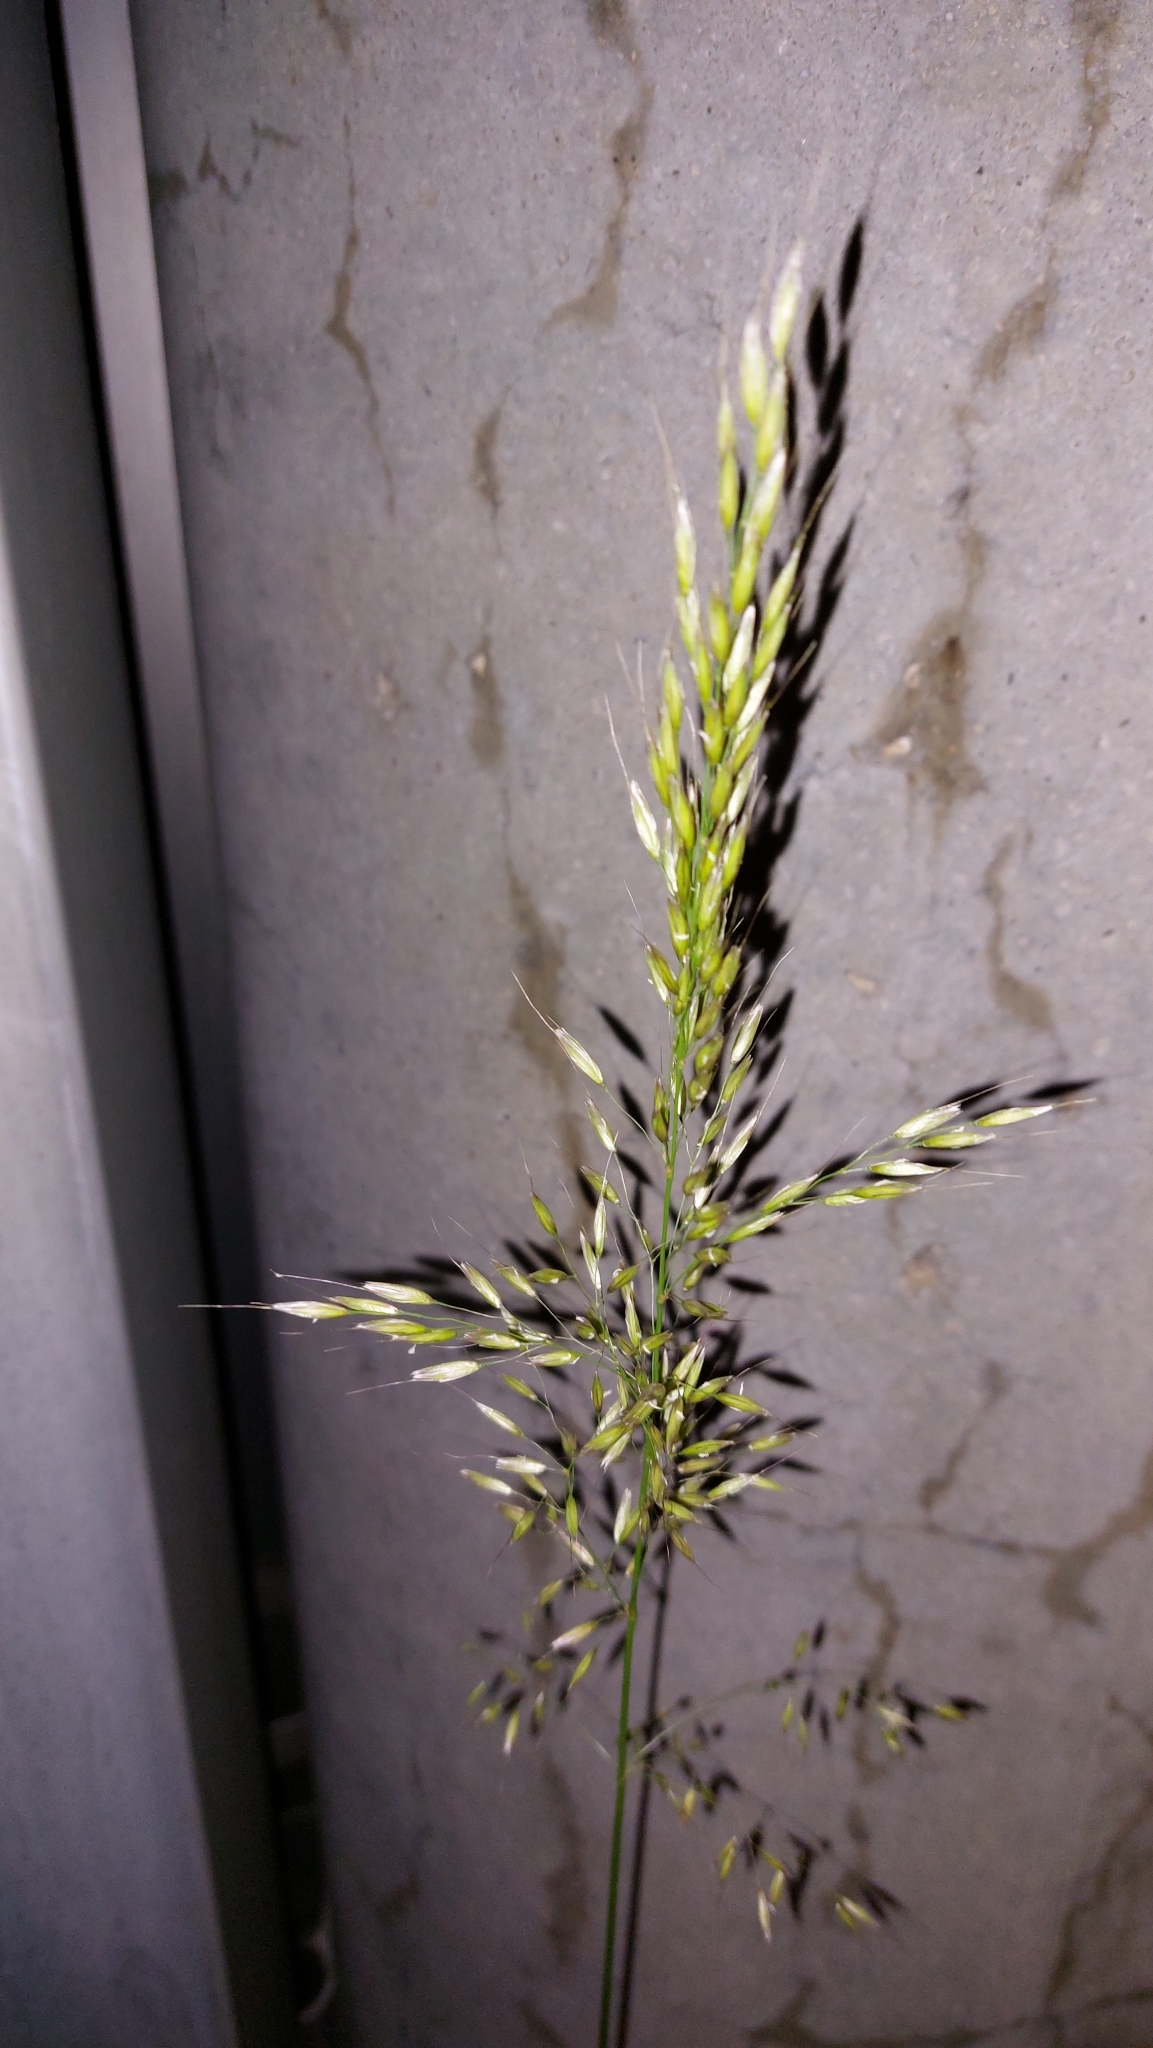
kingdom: Plantae
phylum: Tracheophyta
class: Liliopsida
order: Poales
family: Poaceae
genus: Arrhenatherum
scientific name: Arrhenatherum elatius
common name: Tall oatgrass
